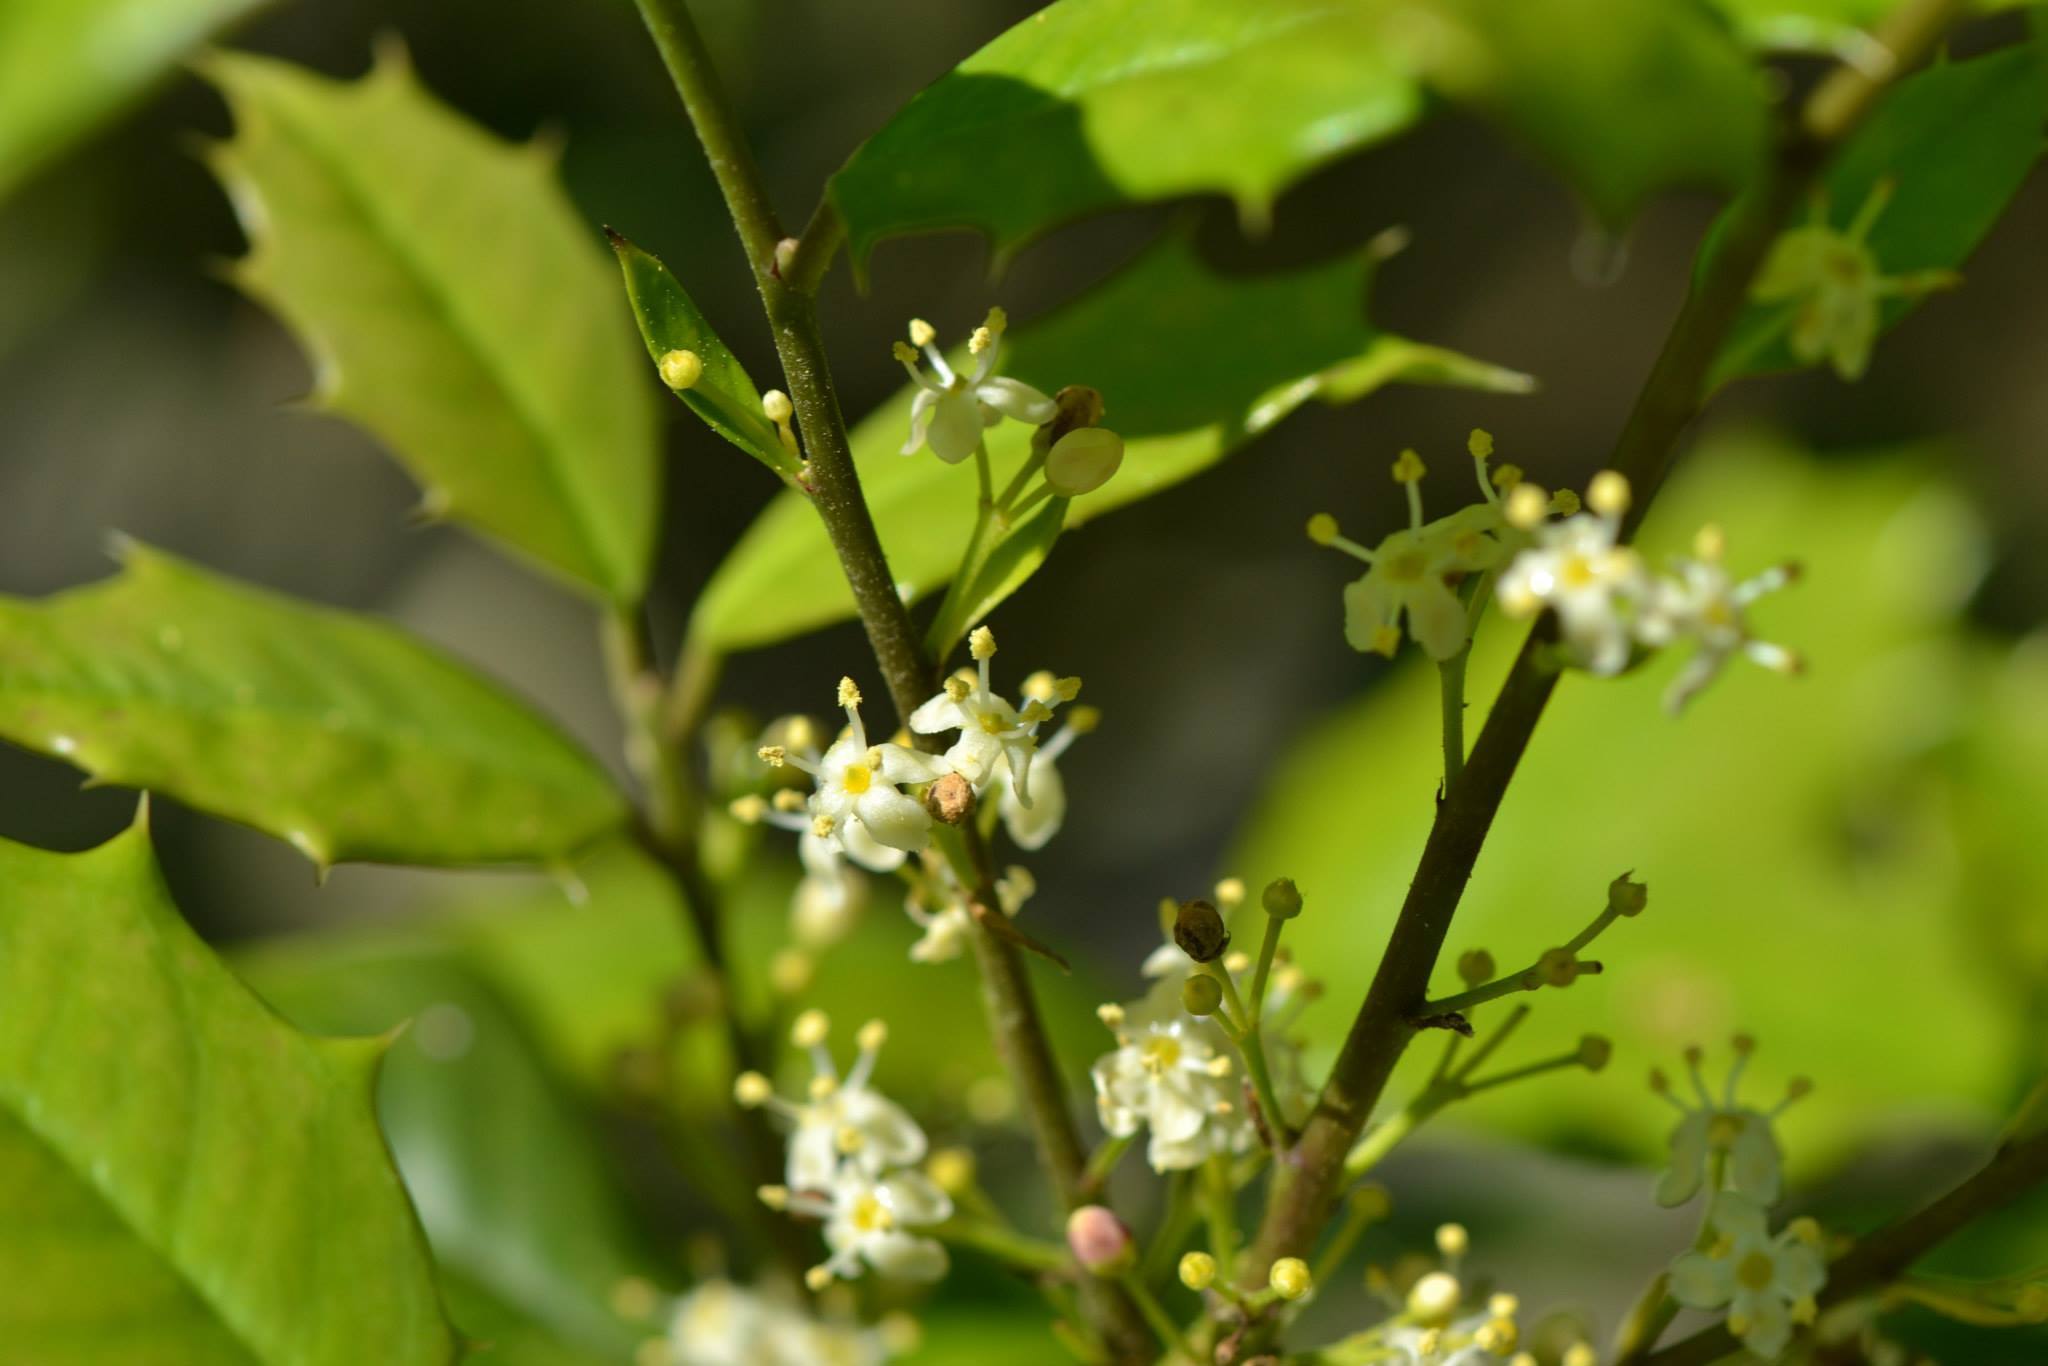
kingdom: Plantae
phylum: Tracheophyta
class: Magnoliopsida
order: Aquifoliales
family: Aquifoliaceae
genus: Ilex
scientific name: Ilex opaca
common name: American holly
